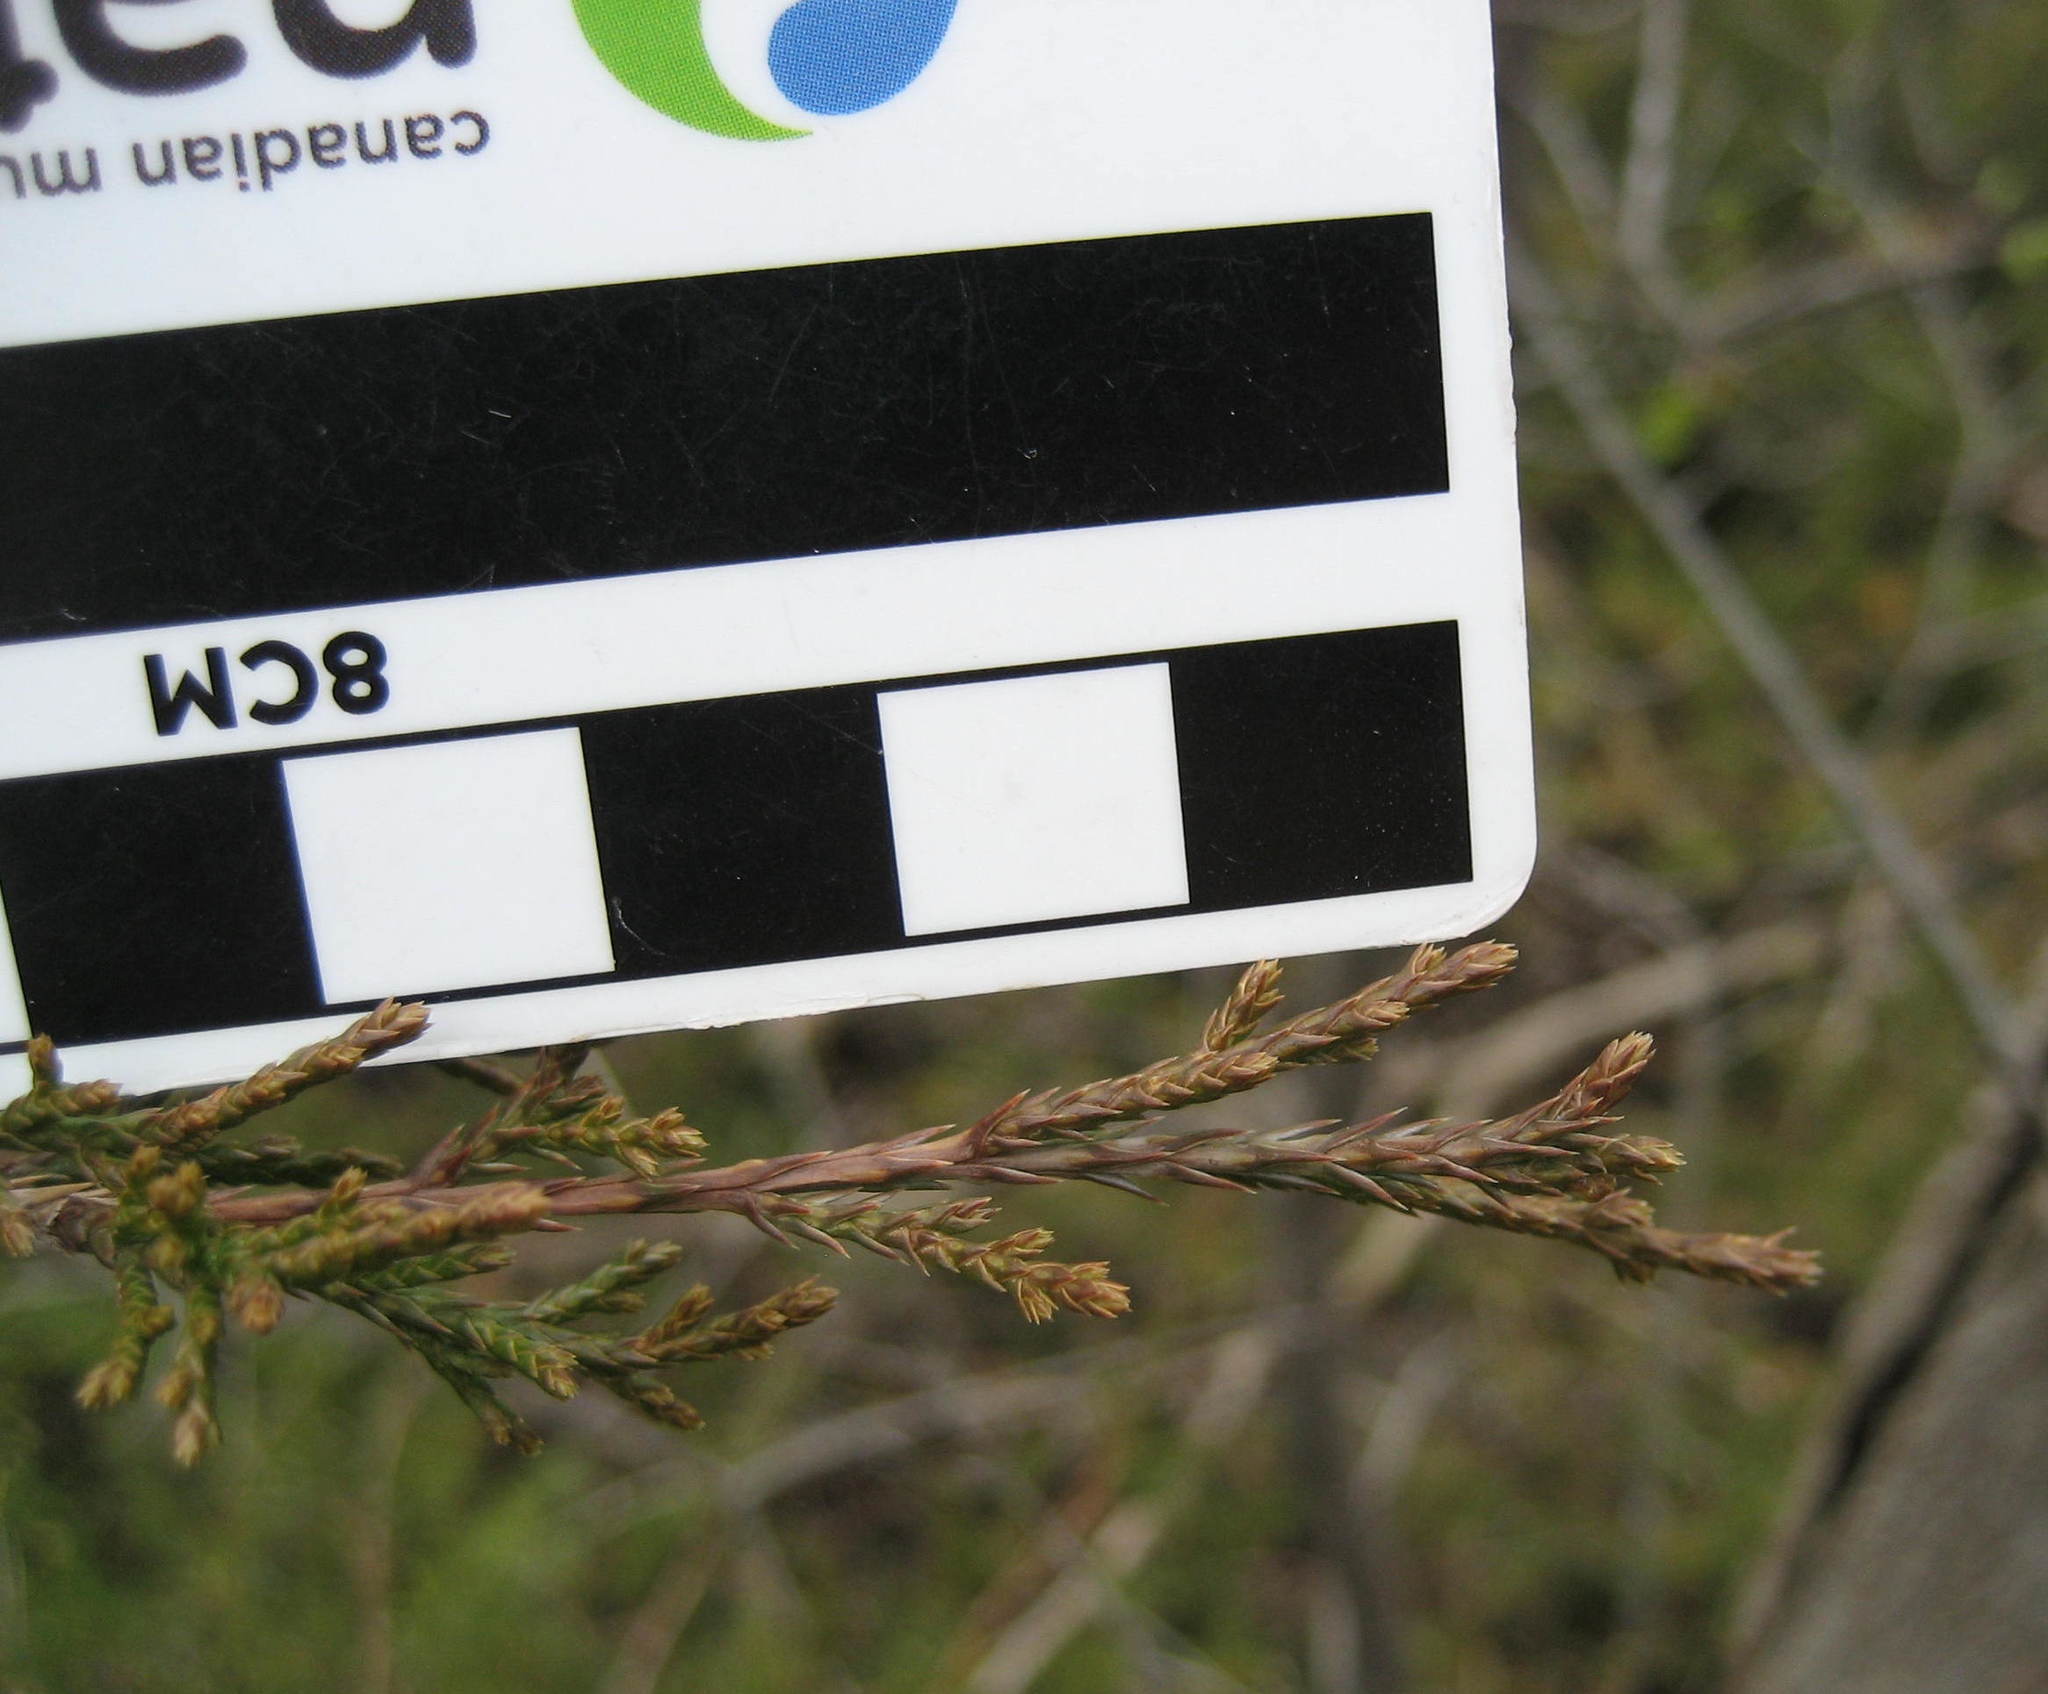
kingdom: Plantae
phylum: Tracheophyta
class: Pinopsida
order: Pinales
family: Cupressaceae
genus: Juniperus
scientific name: Juniperus virginiana
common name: Red juniper
